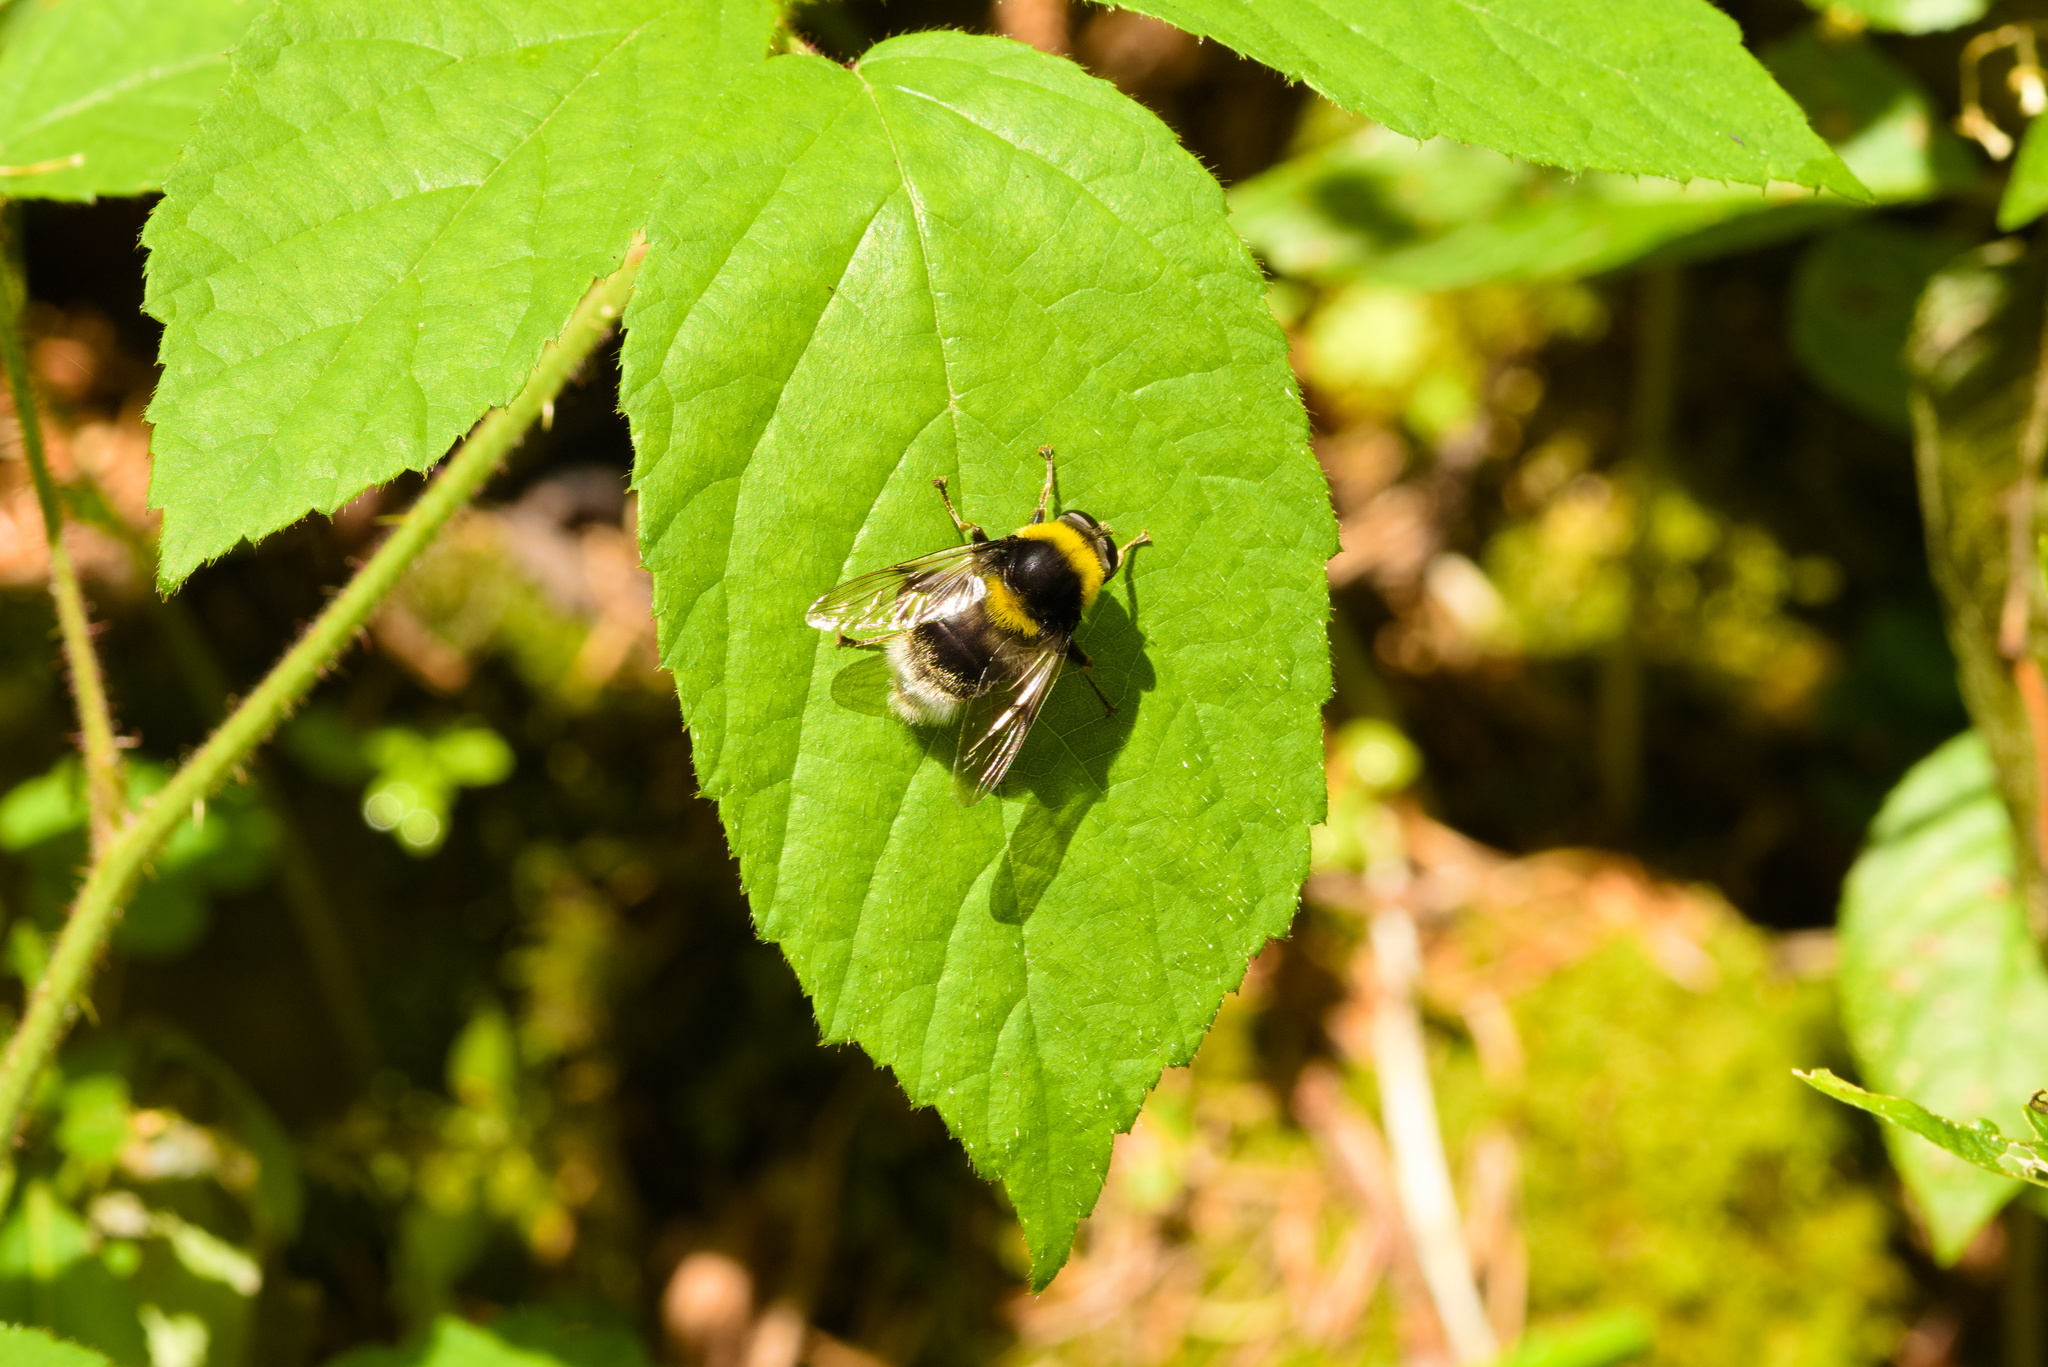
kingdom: Animalia
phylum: Arthropoda
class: Insecta
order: Diptera
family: Syrphidae
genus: Sericomyia
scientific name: Sericomyia bombiformis
